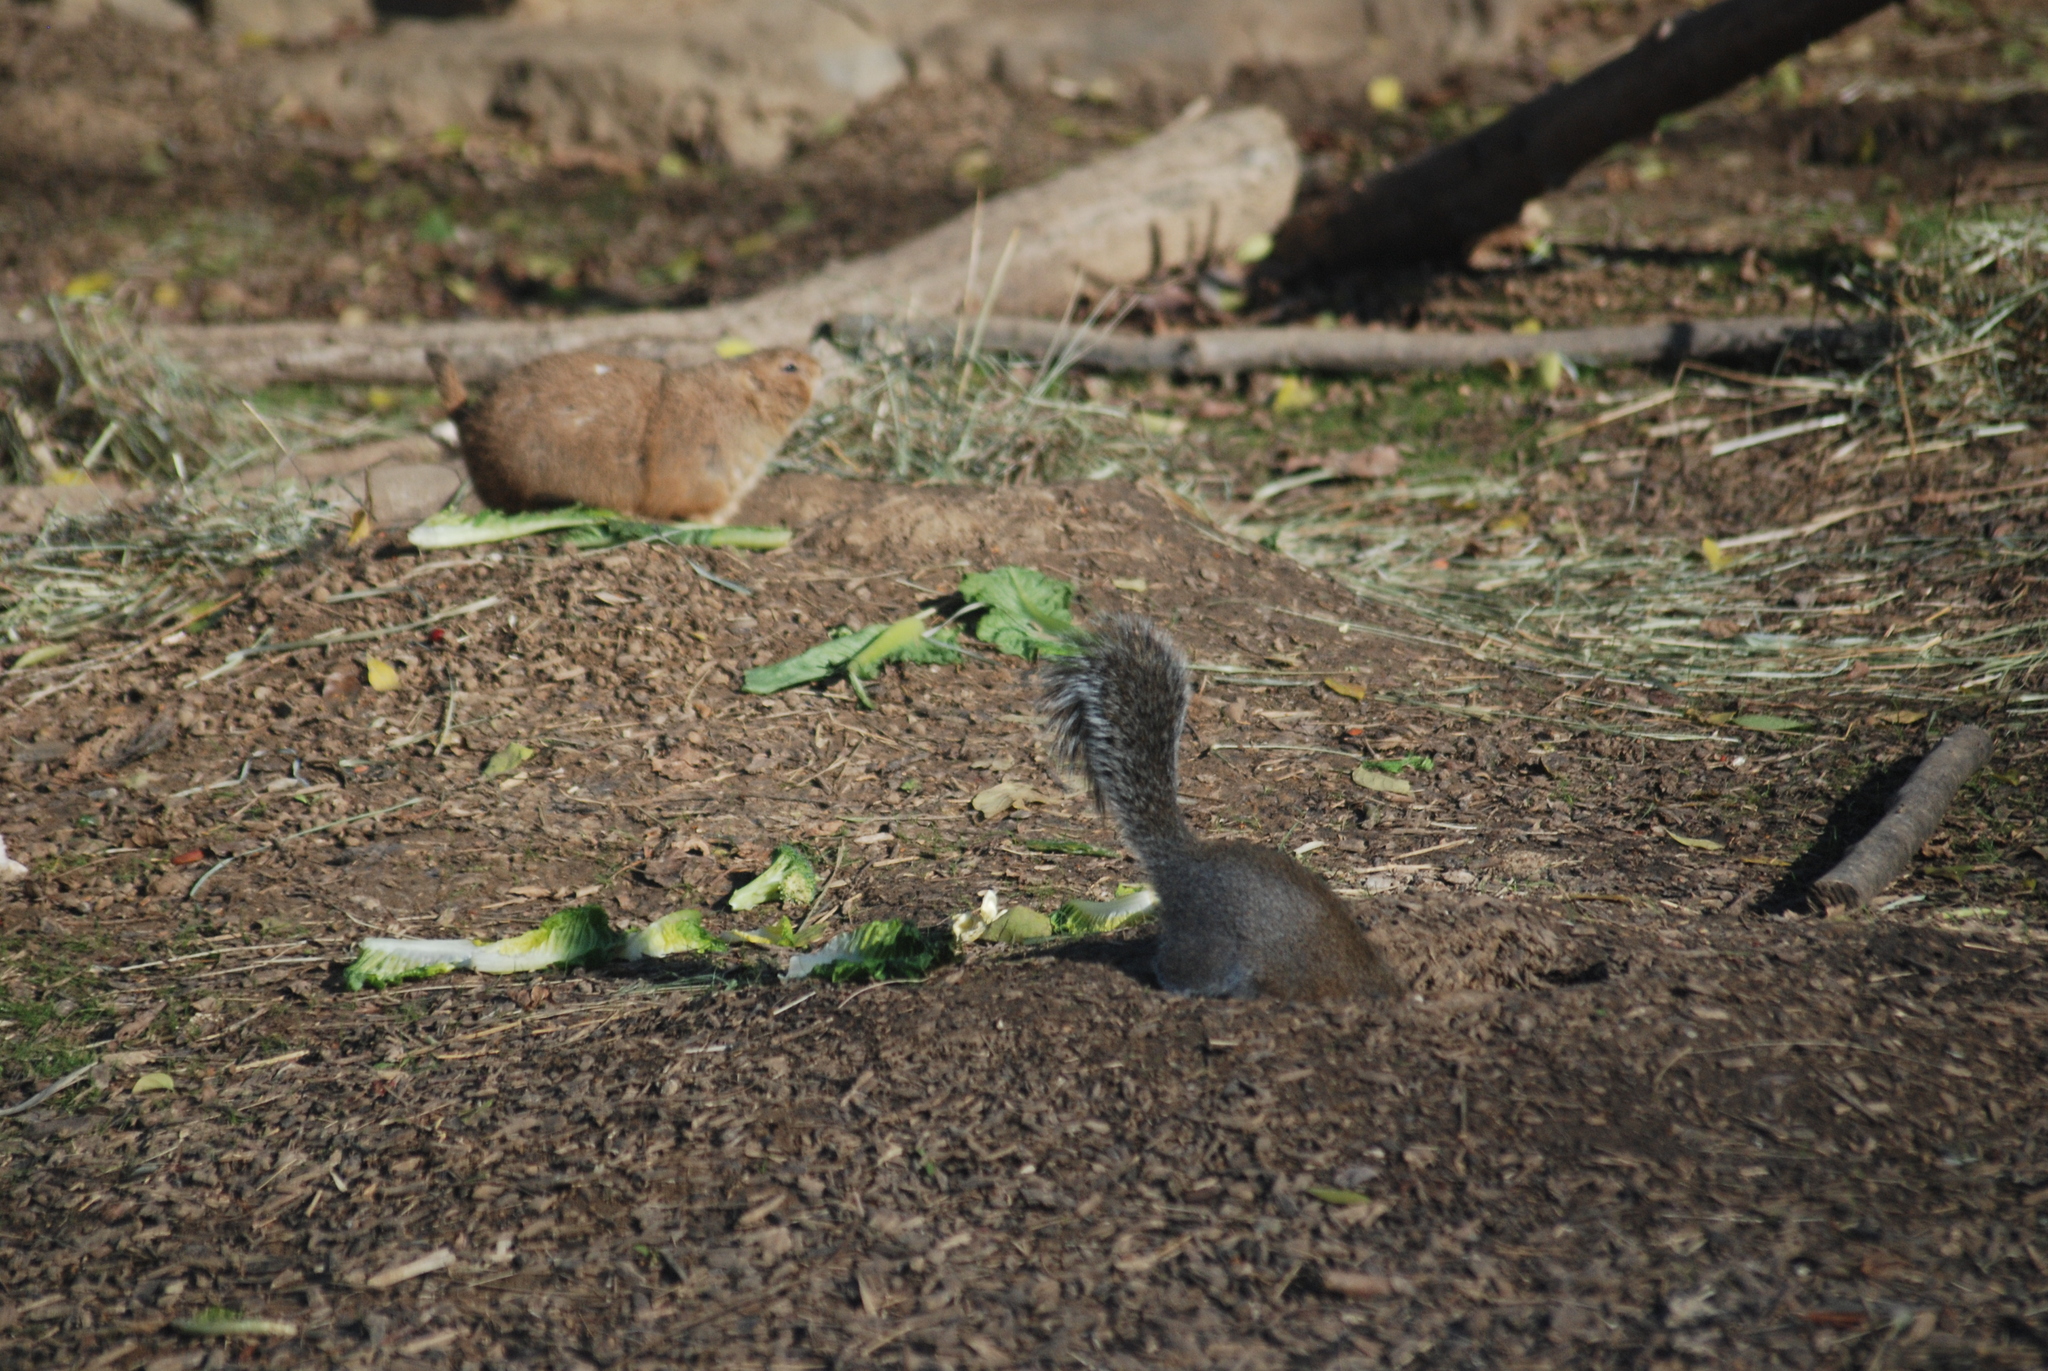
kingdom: Animalia
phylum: Chordata
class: Mammalia
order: Rodentia
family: Sciuridae
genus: Sciurus
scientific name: Sciurus carolinensis
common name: Eastern gray squirrel
